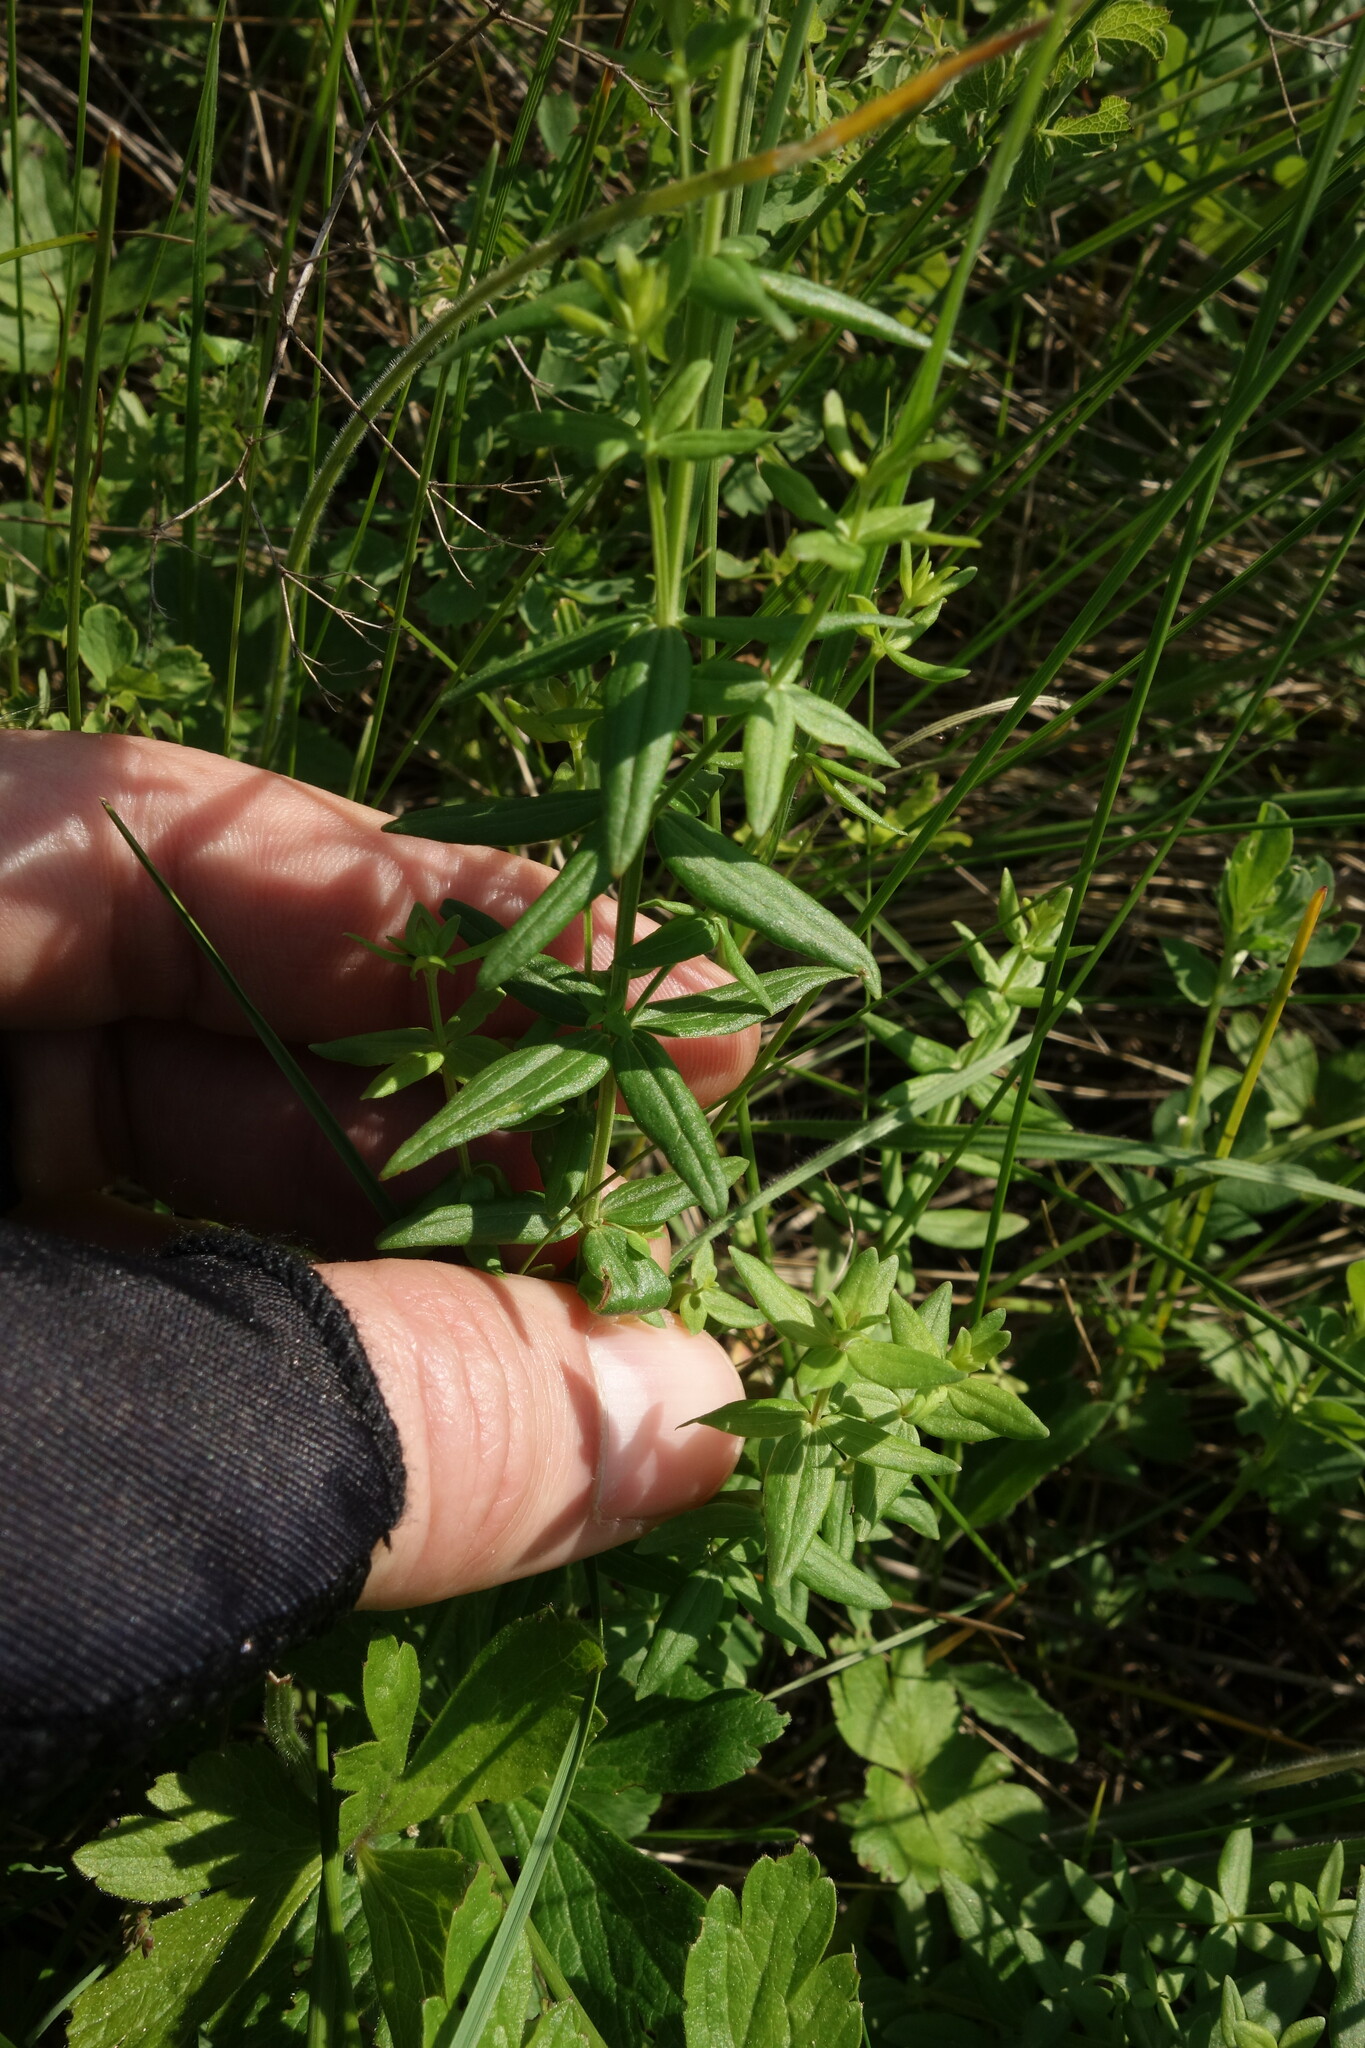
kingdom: Plantae
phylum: Tracheophyta
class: Magnoliopsida
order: Gentianales
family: Rubiaceae
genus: Galium
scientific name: Galium boreale
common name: Northern bedstraw
